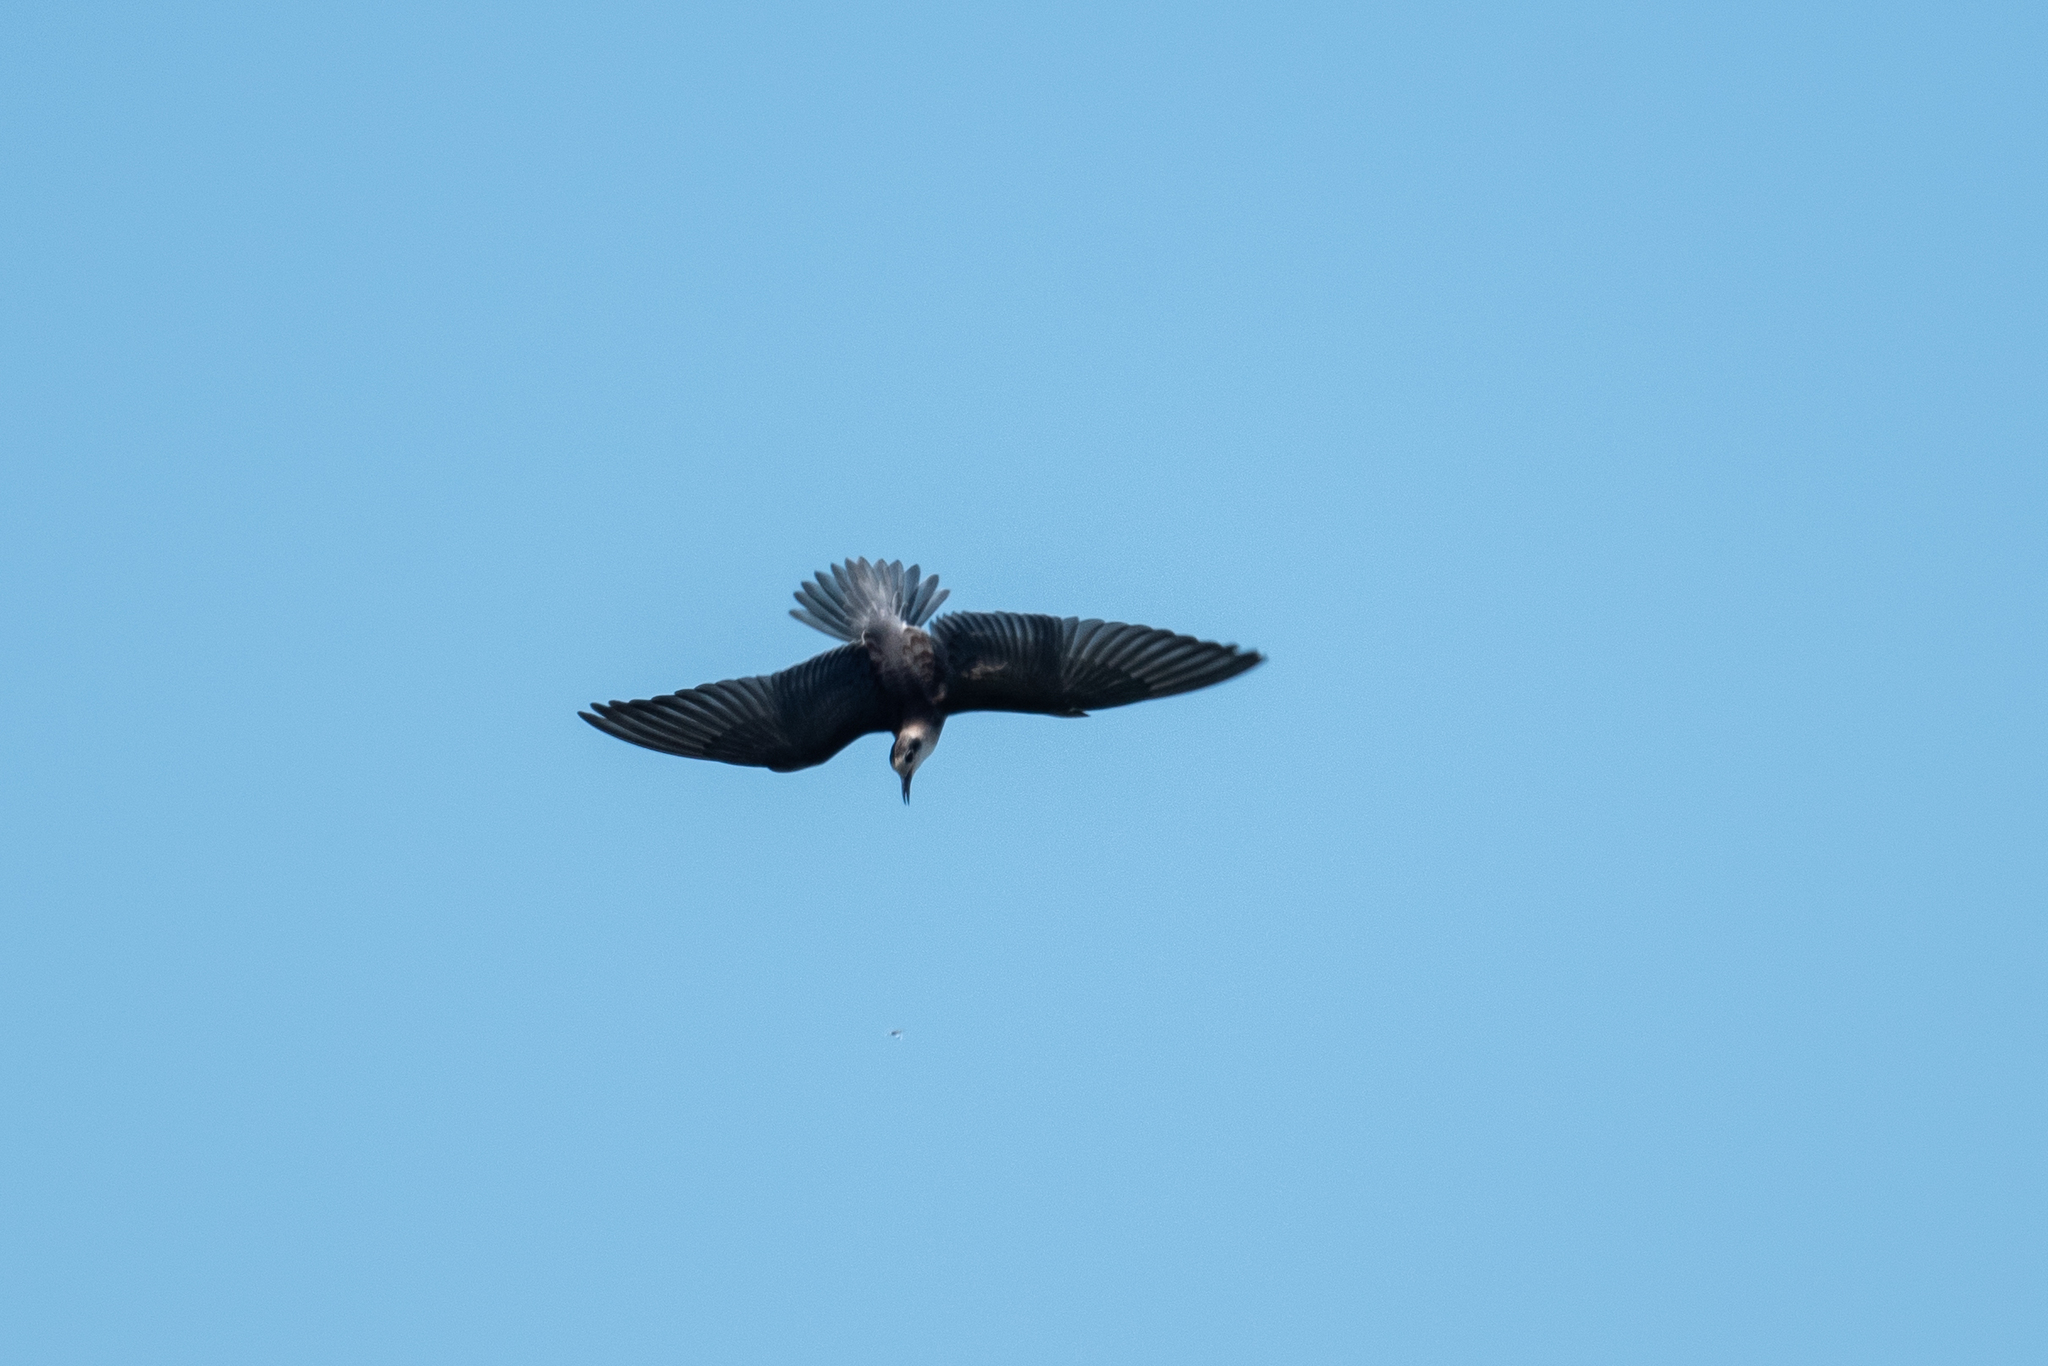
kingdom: Animalia
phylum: Chordata
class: Aves
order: Charadriiformes
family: Laridae
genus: Chlidonias
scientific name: Chlidonias niger
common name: Black tern
